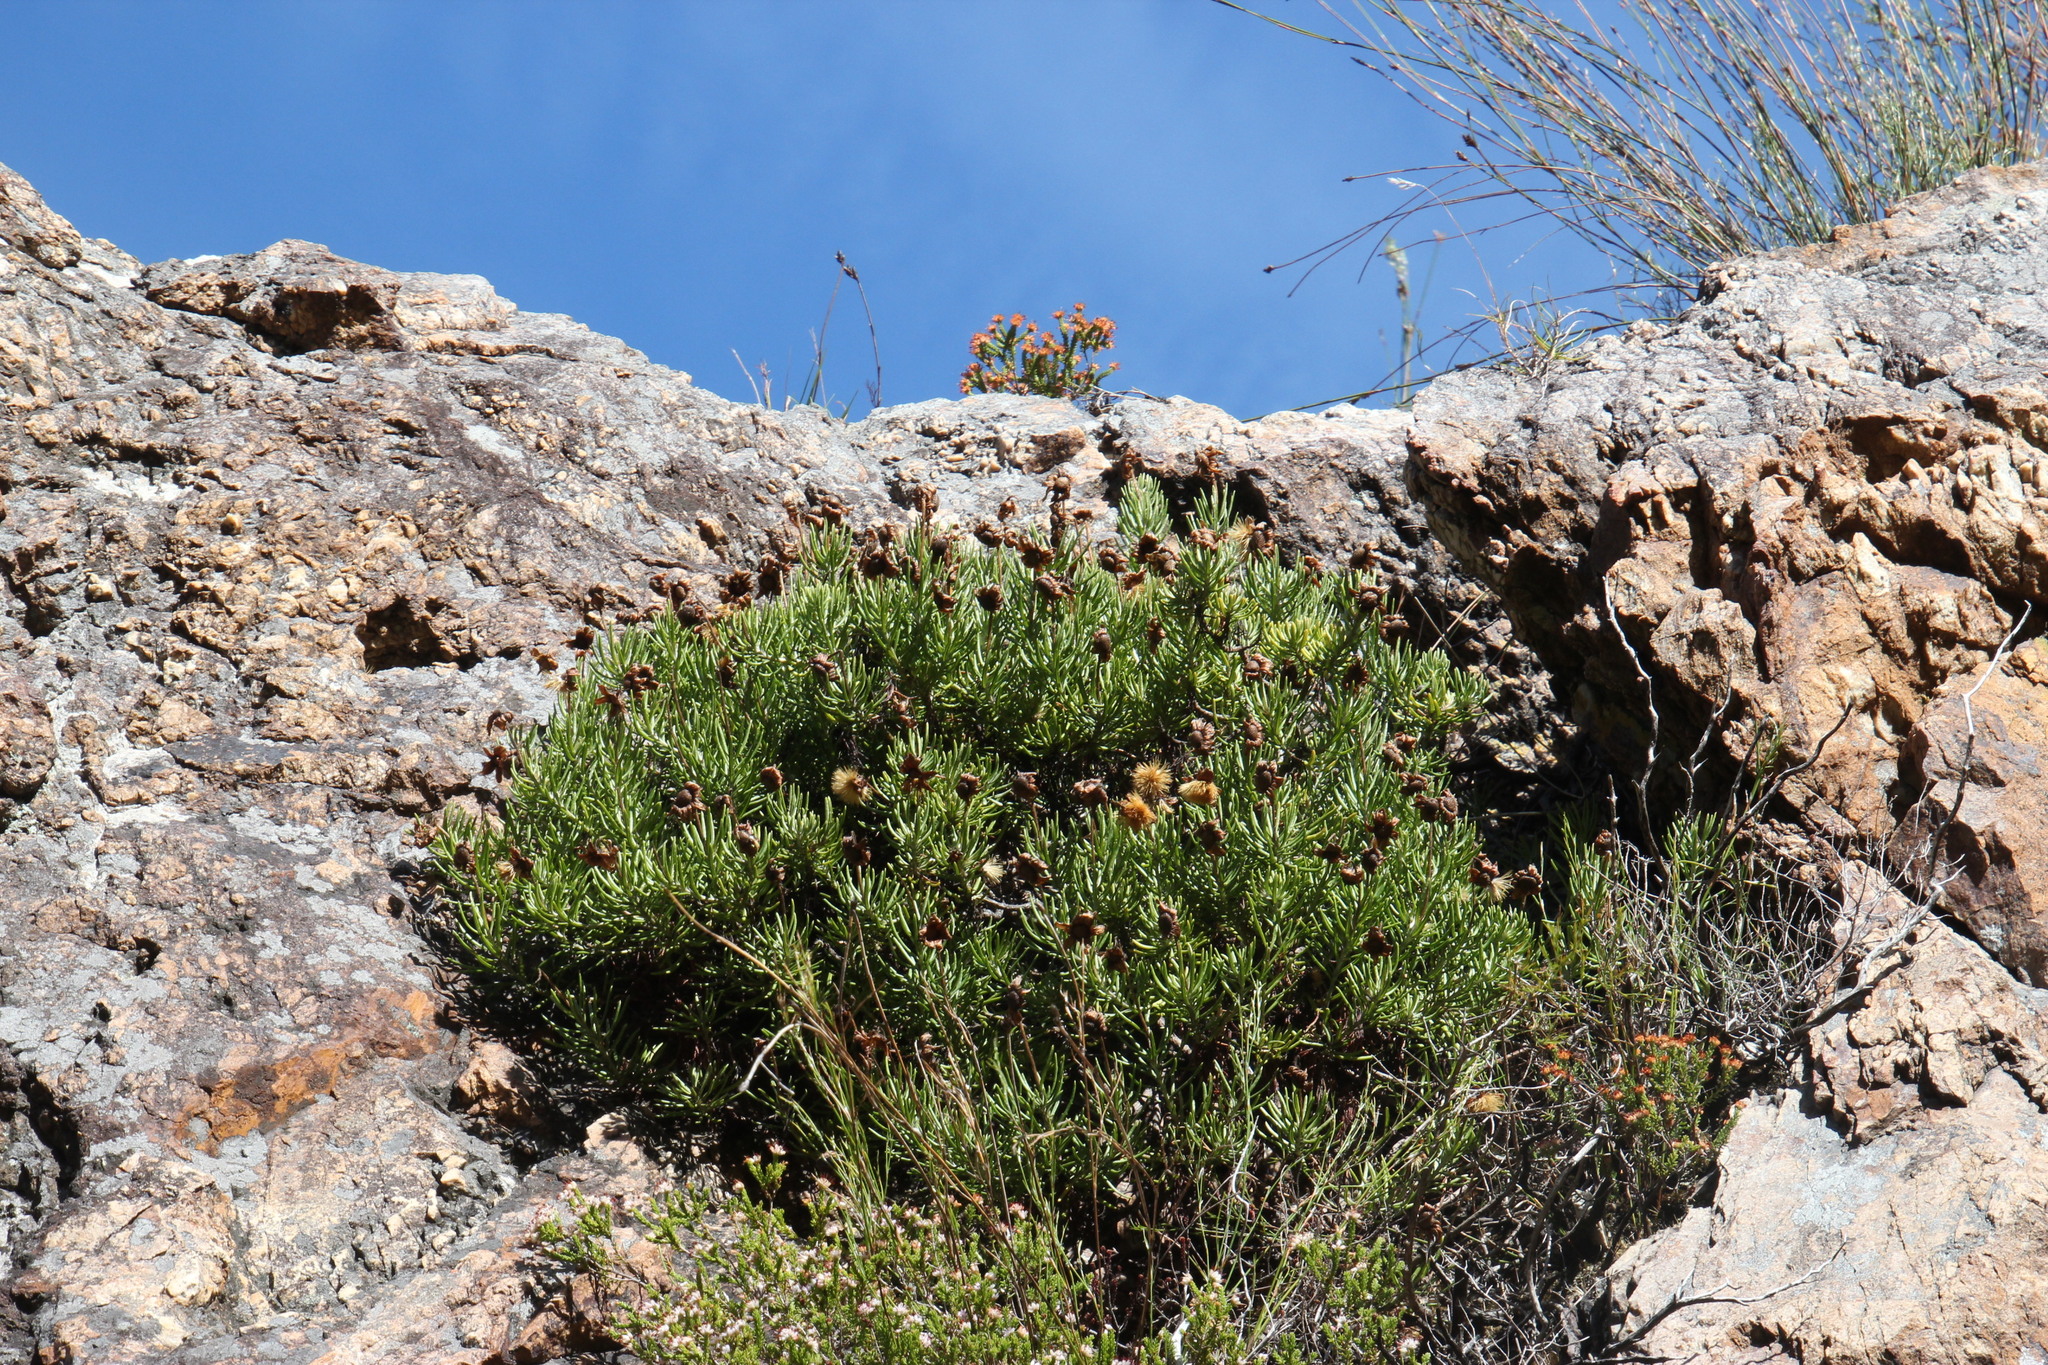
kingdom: Plantae
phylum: Tracheophyta
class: Magnoliopsida
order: Asterales
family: Asteraceae
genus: Heterolepis
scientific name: Heterolepis aliena
